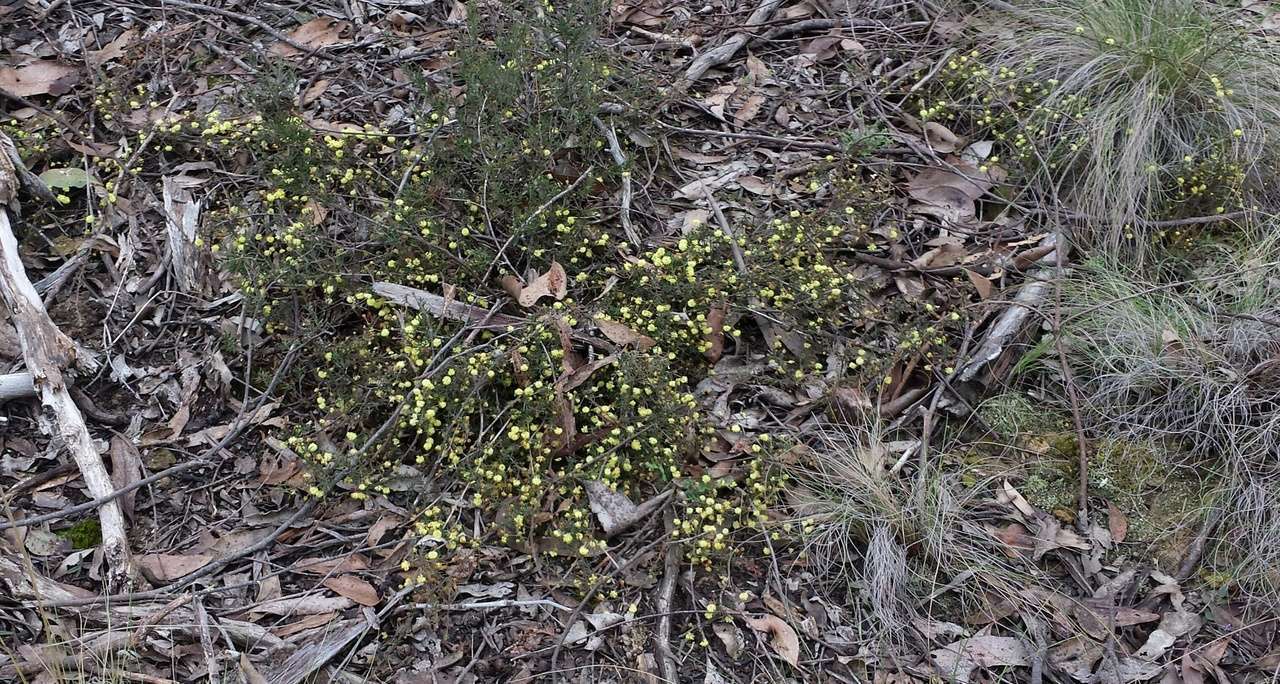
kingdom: Plantae
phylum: Tracheophyta
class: Magnoliopsida
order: Fabales
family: Fabaceae
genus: Acacia
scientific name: Acacia aculeatissima
